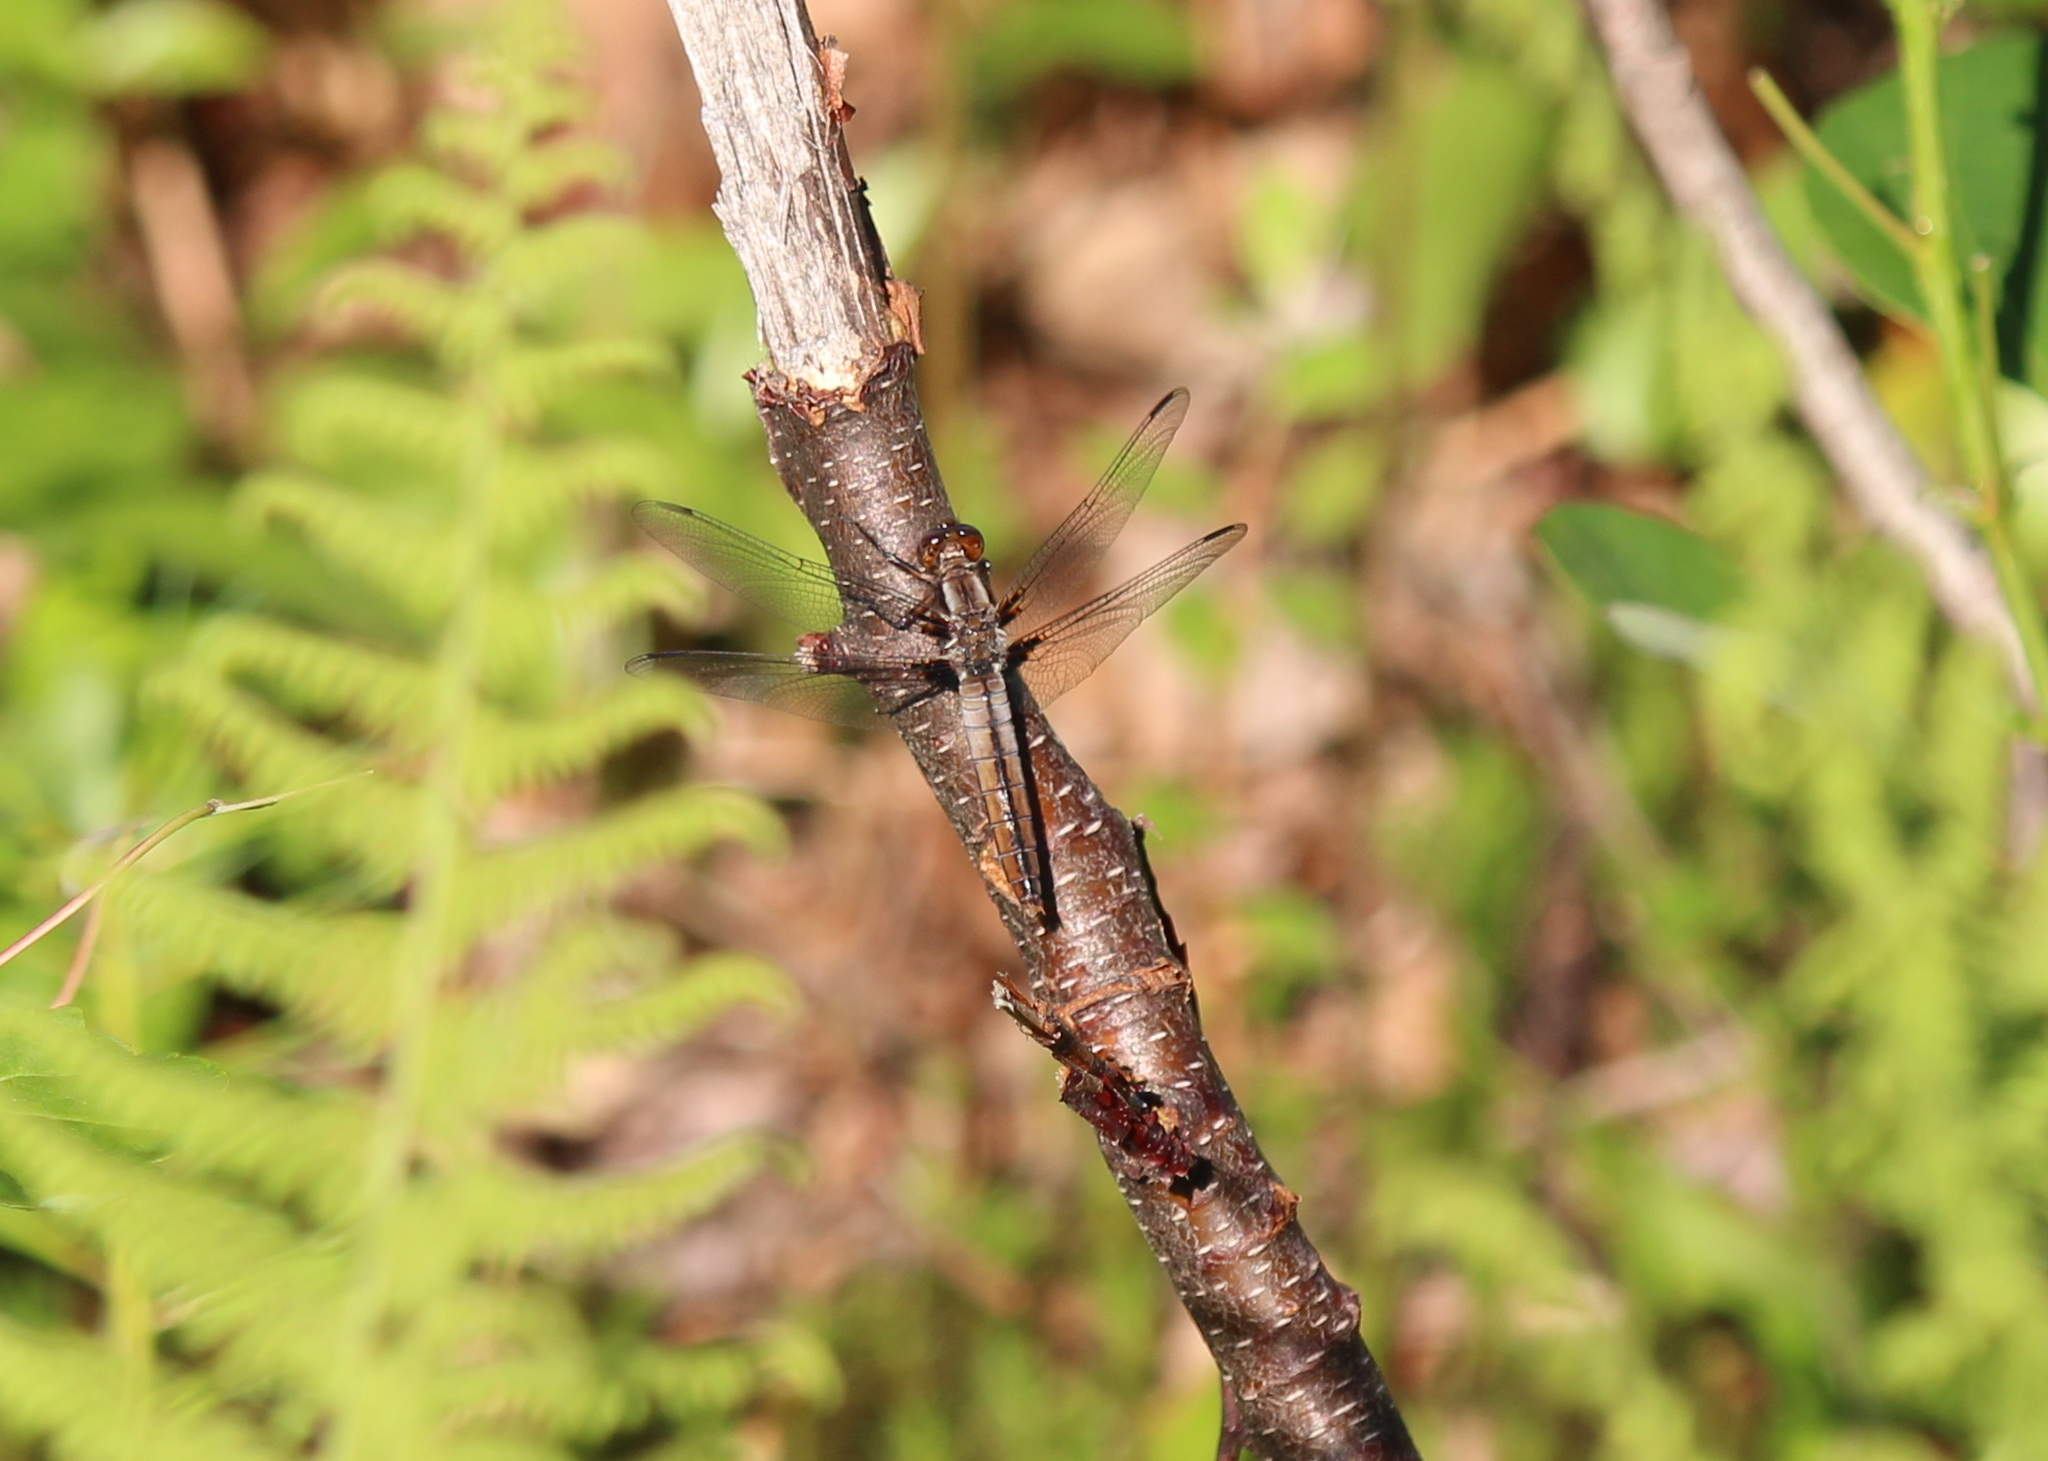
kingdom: Animalia
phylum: Arthropoda
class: Insecta
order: Odonata
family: Libellulidae
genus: Ladona
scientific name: Ladona julia
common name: Chalk-fronted corporal
